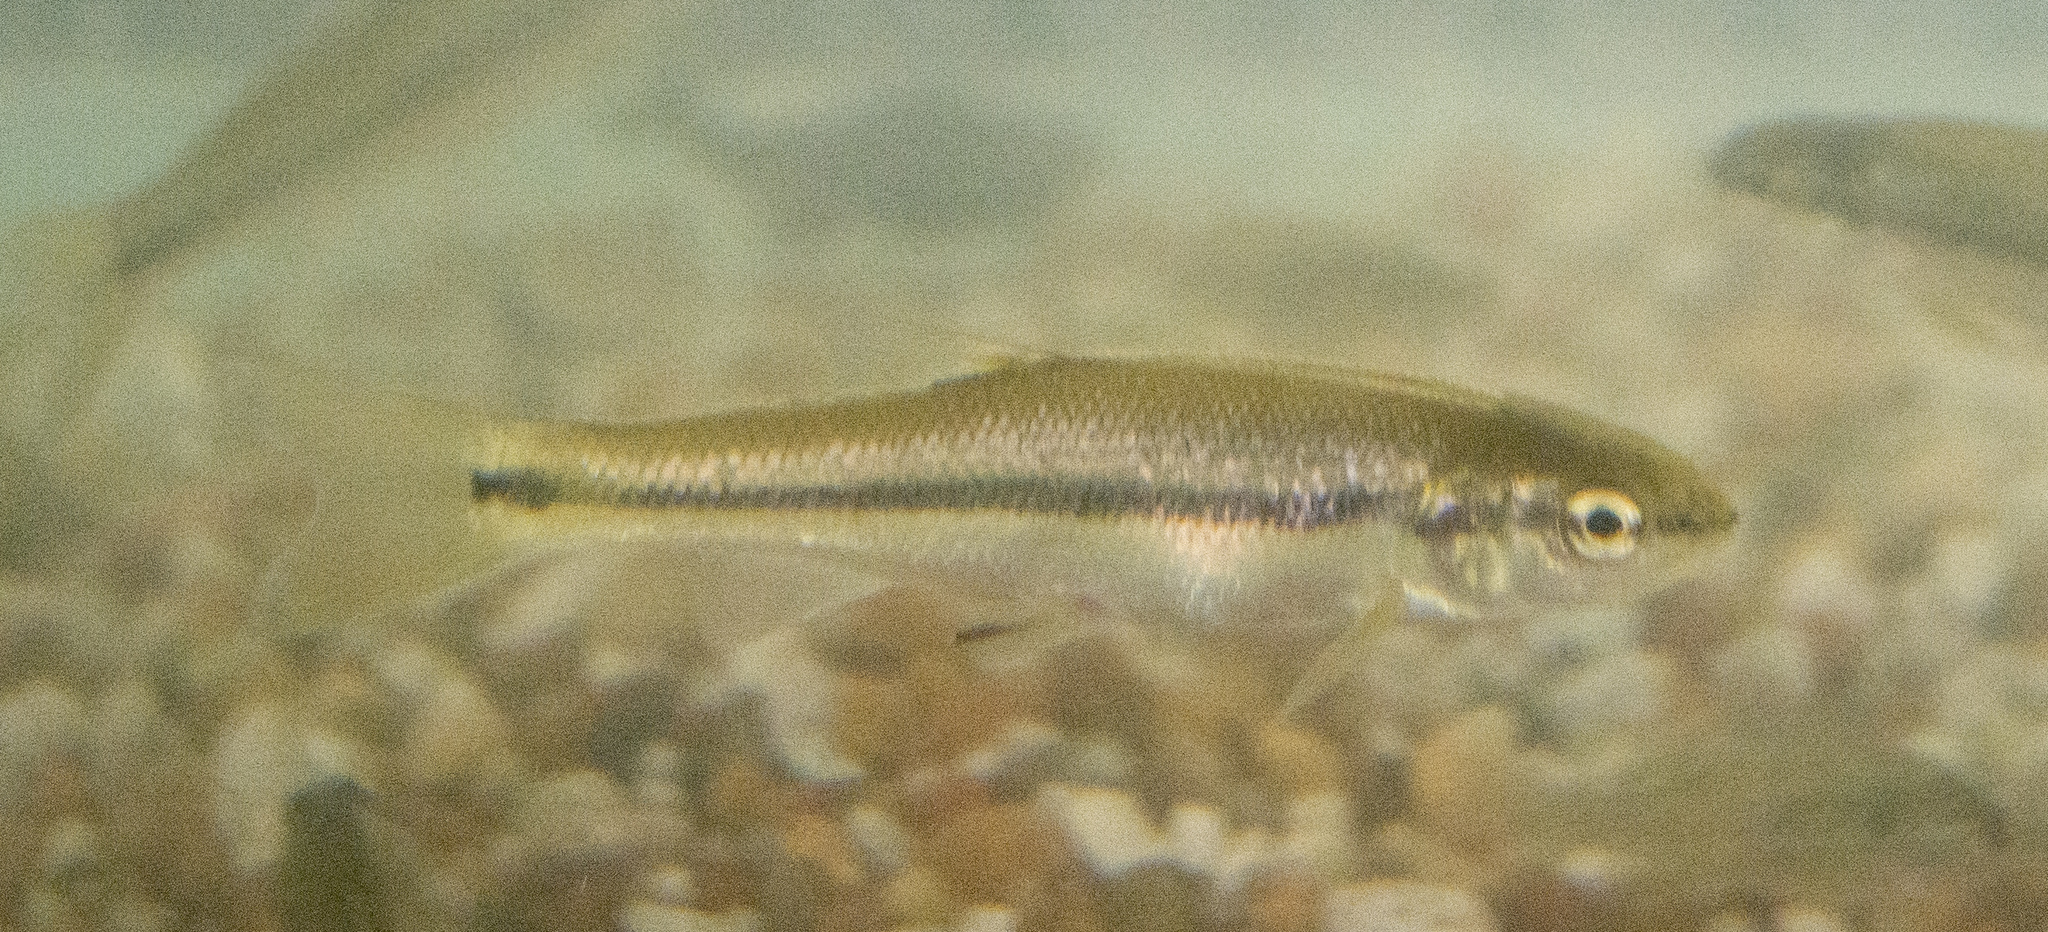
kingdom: Animalia
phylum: Chordata
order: Cypriniformes
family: Cyprinidae
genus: Semotilus
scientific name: Semotilus atromaculatus
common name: Creek chub
